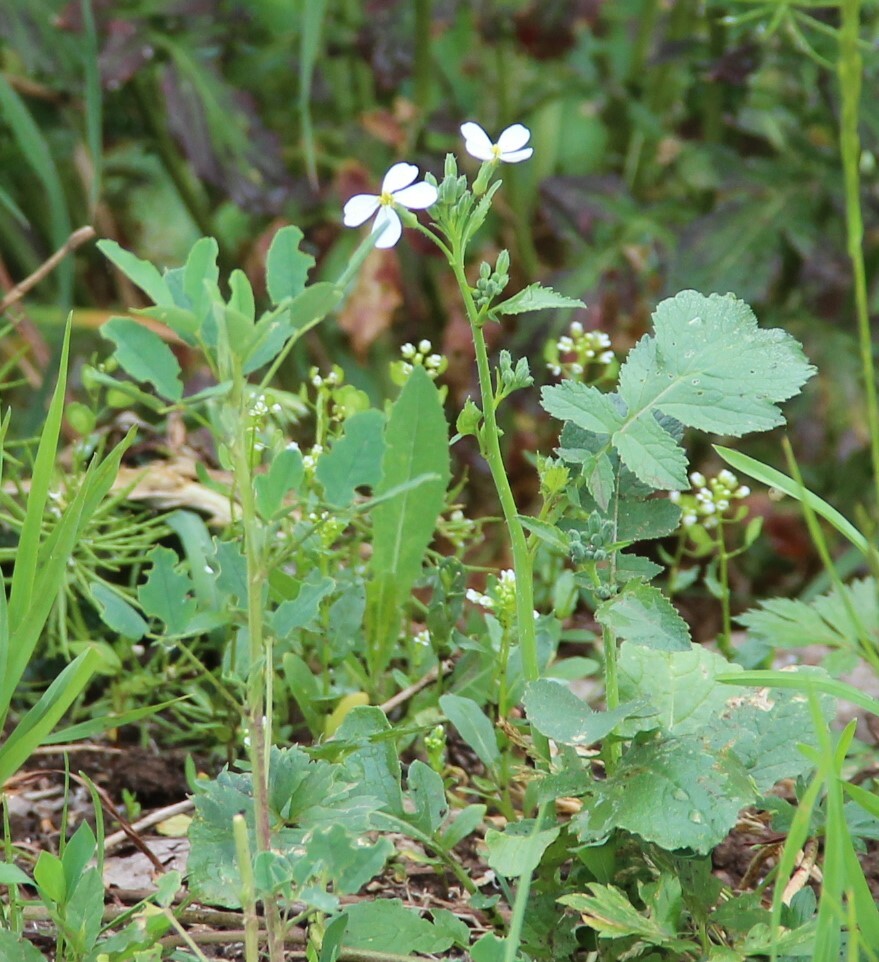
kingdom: Plantae
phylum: Tracheophyta
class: Magnoliopsida
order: Brassicales
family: Brassicaceae
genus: Raphanus
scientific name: Raphanus raphanistrum
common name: Wild radish
